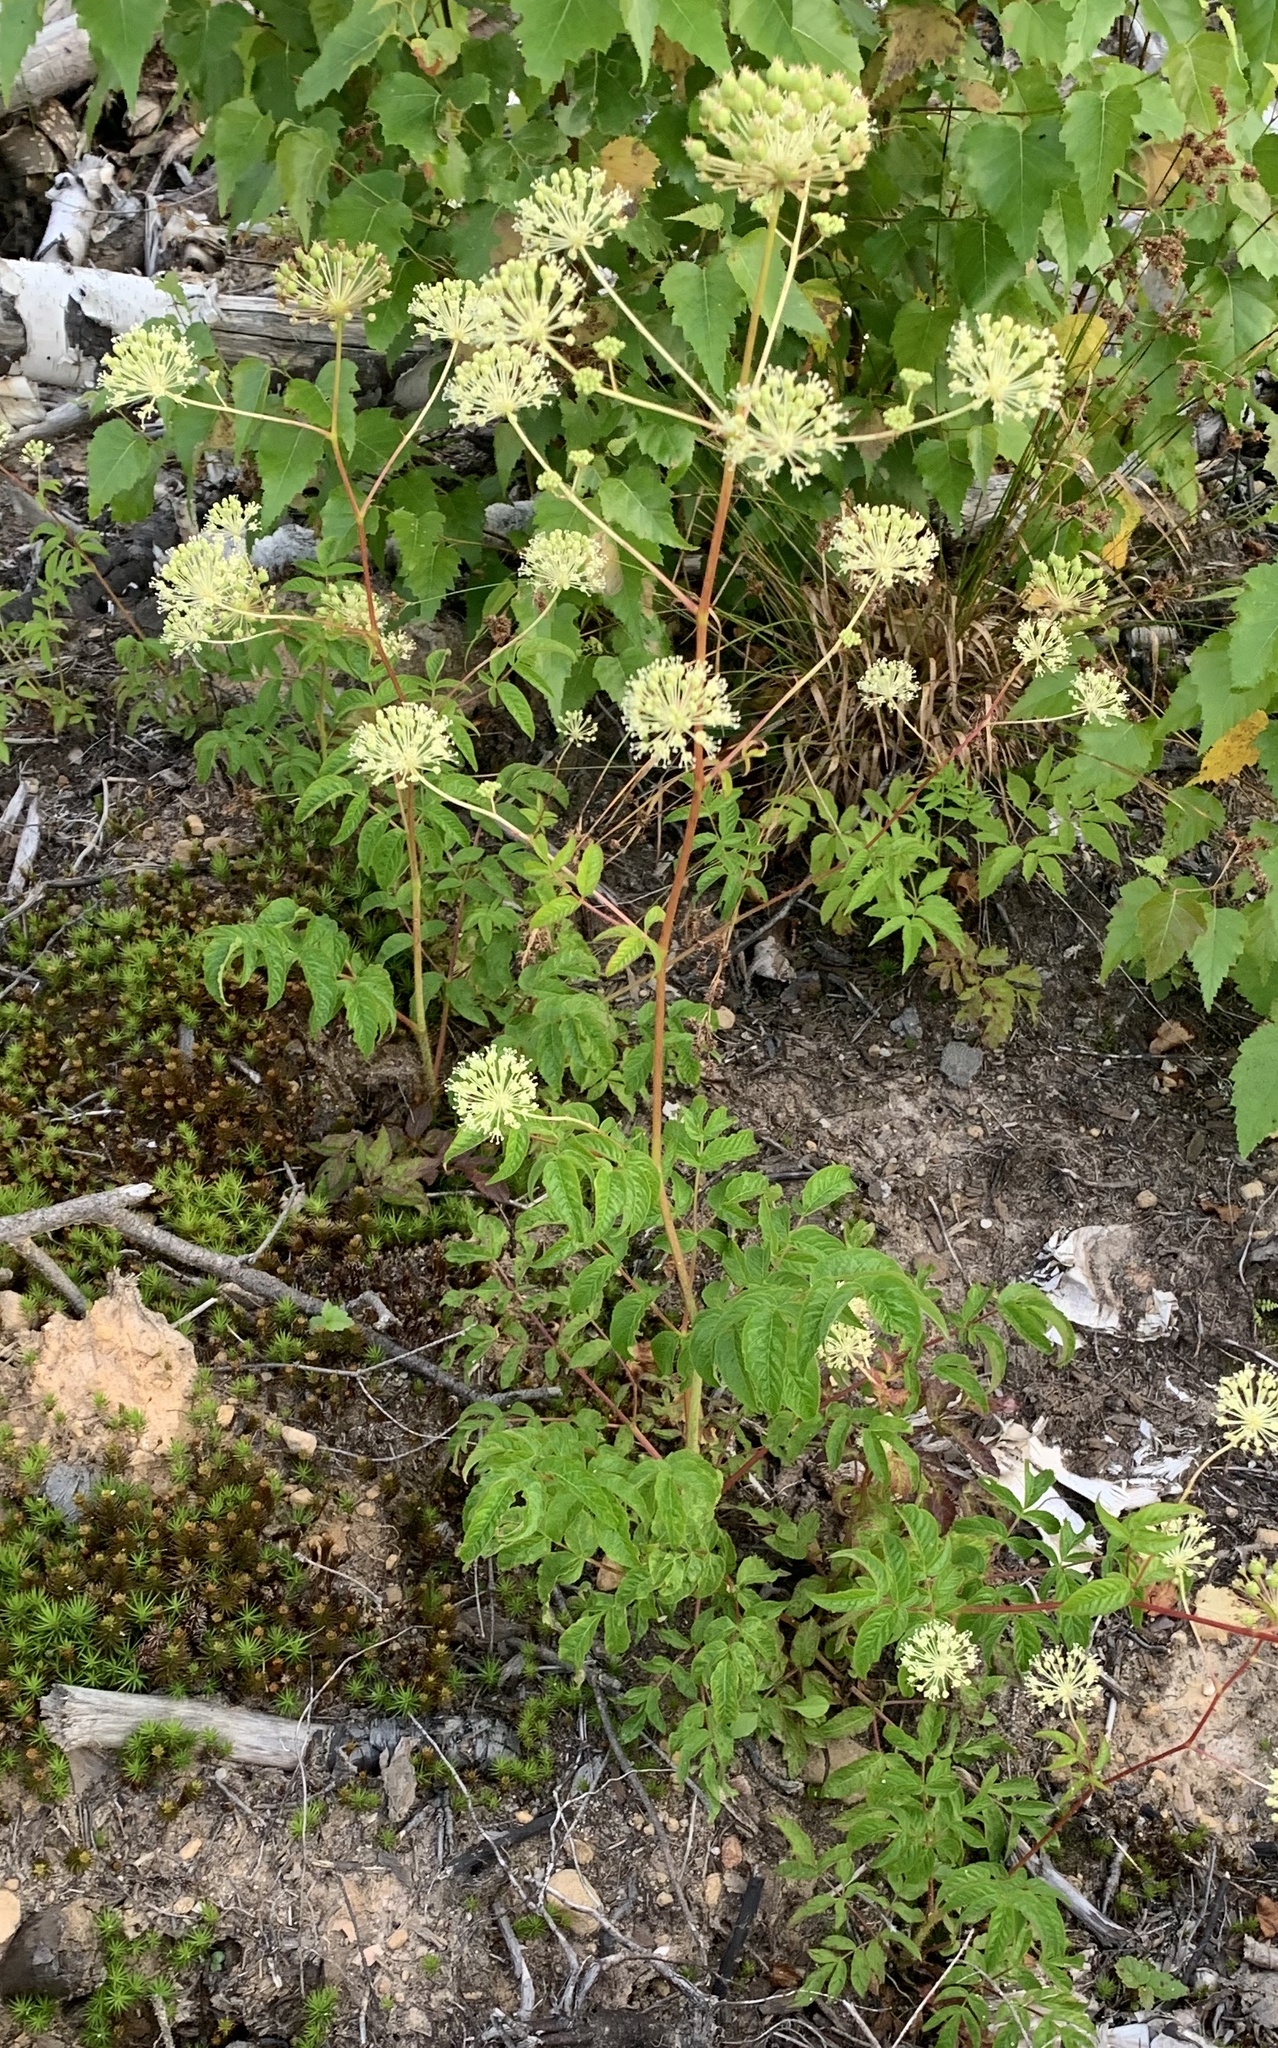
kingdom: Plantae
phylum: Tracheophyta
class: Magnoliopsida
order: Apiales
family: Araliaceae
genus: Aralia
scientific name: Aralia hispida
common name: Bristly sarsaparilla
